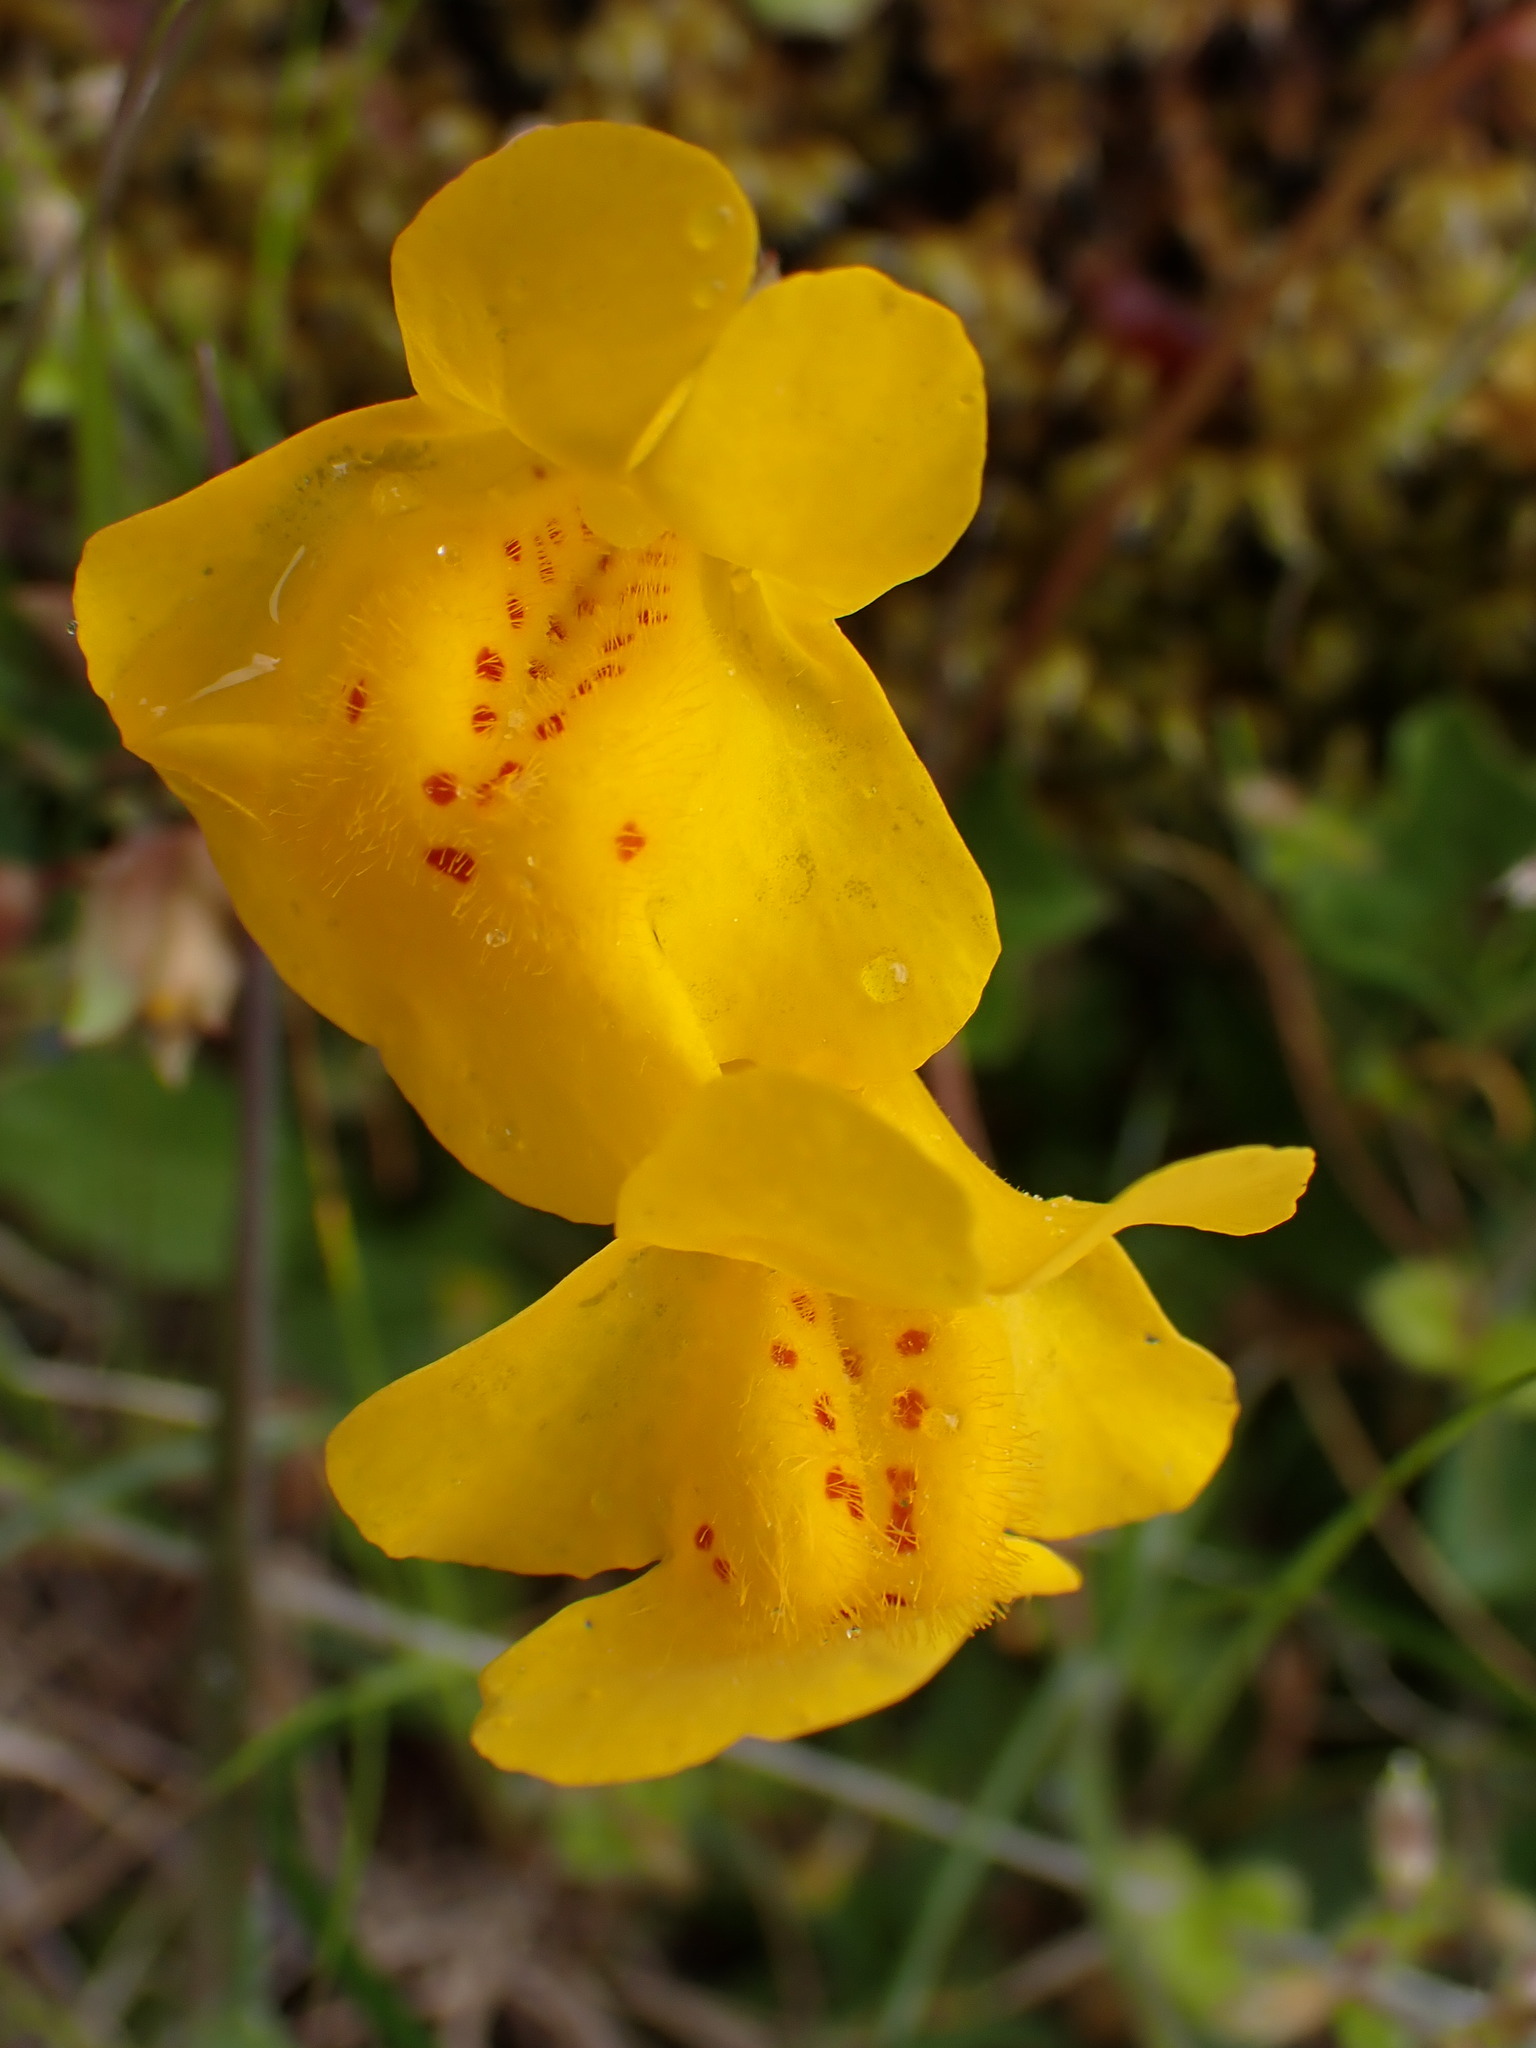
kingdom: Plantae
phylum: Tracheophyta
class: Magnoliopsida
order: Lamiales
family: Phrymaceae
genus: Erythranthe
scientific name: Erythranthe guttata
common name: Monkeyflower
